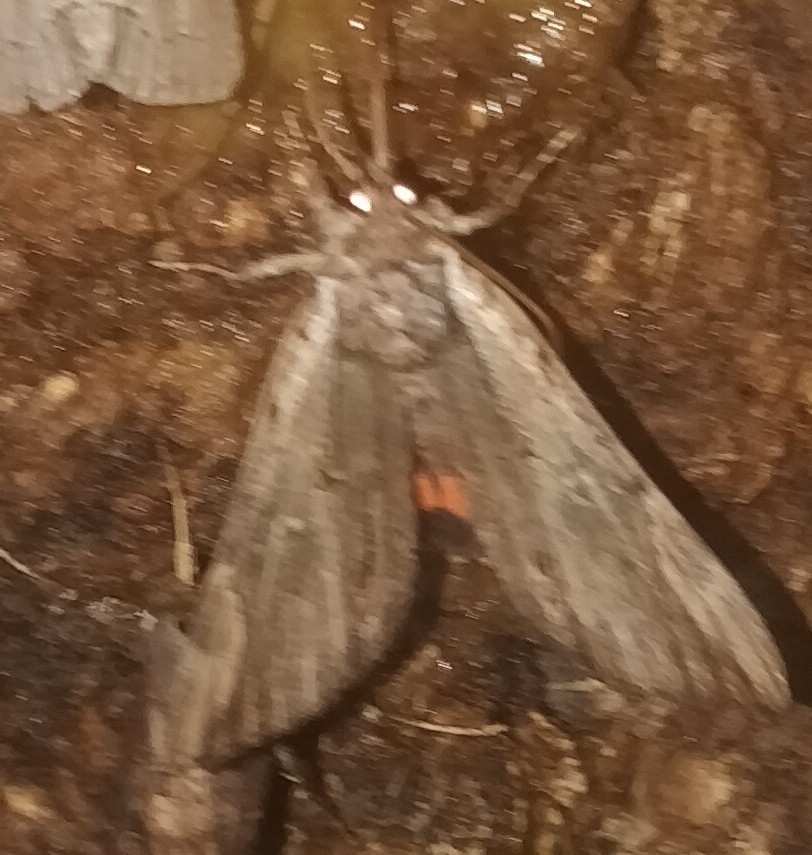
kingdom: Animalia
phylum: Arthropoda
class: Insecta
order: Lepidoptera
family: Erebidae
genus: Catocala
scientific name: Catocala ultronia
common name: Ultronia underwing
